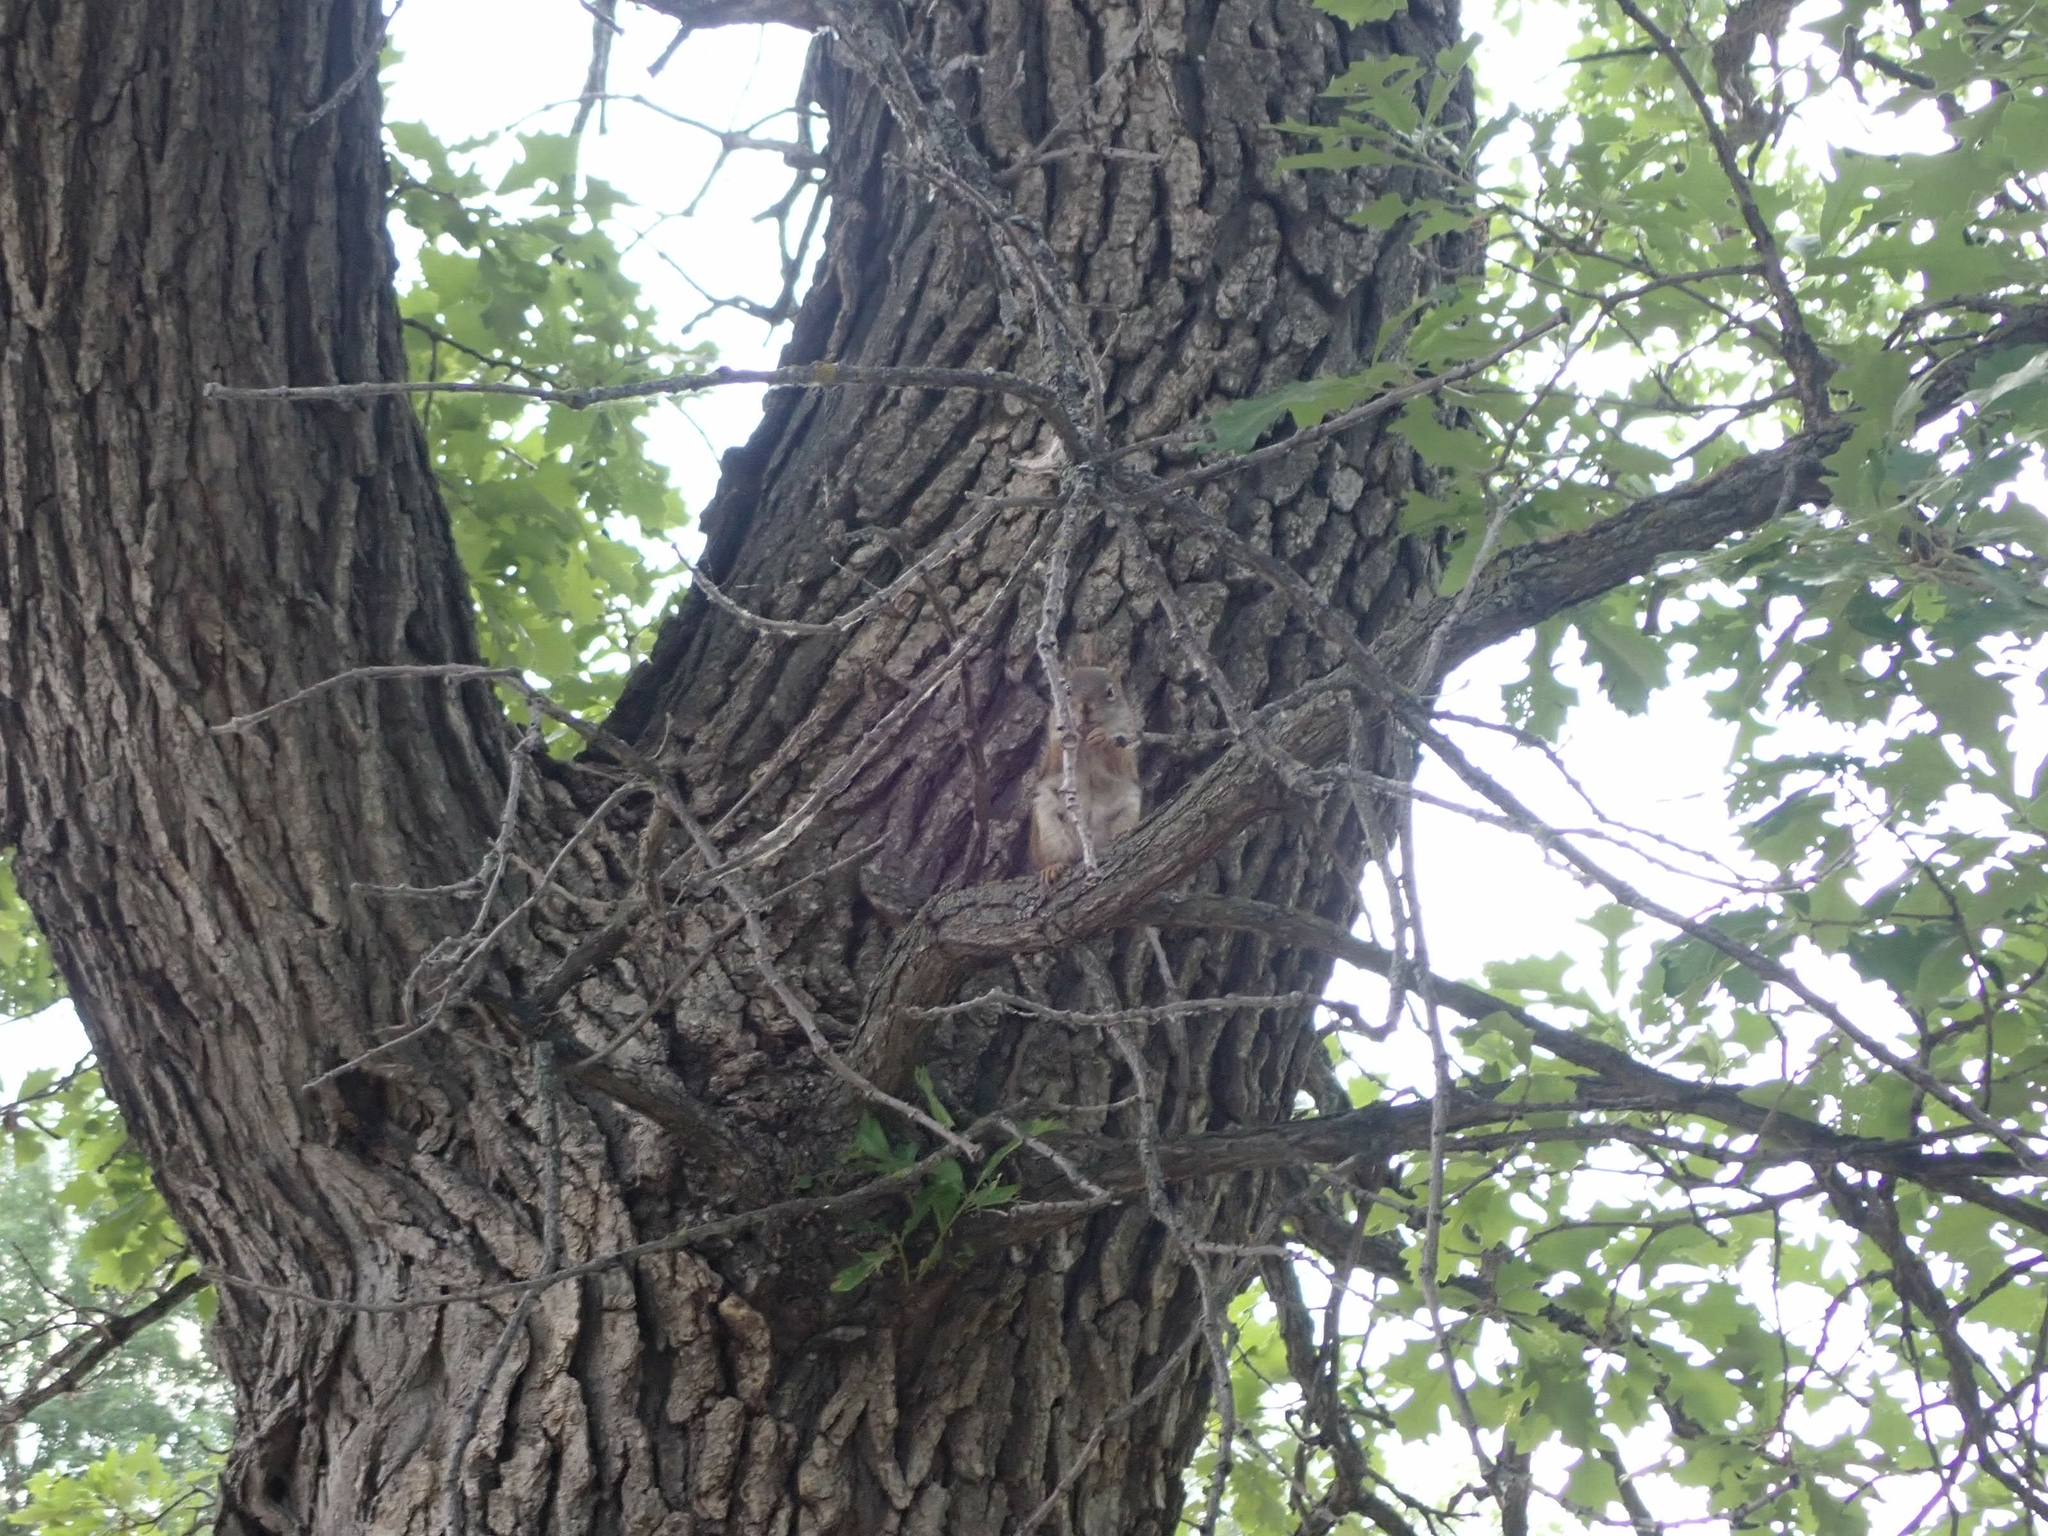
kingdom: Animalia
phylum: Chordata
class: Mammalia
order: Rodentia
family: Sciuridae
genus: Tamiasciurus
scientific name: Tamiasciurus hudsonicus
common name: Red squirrel
